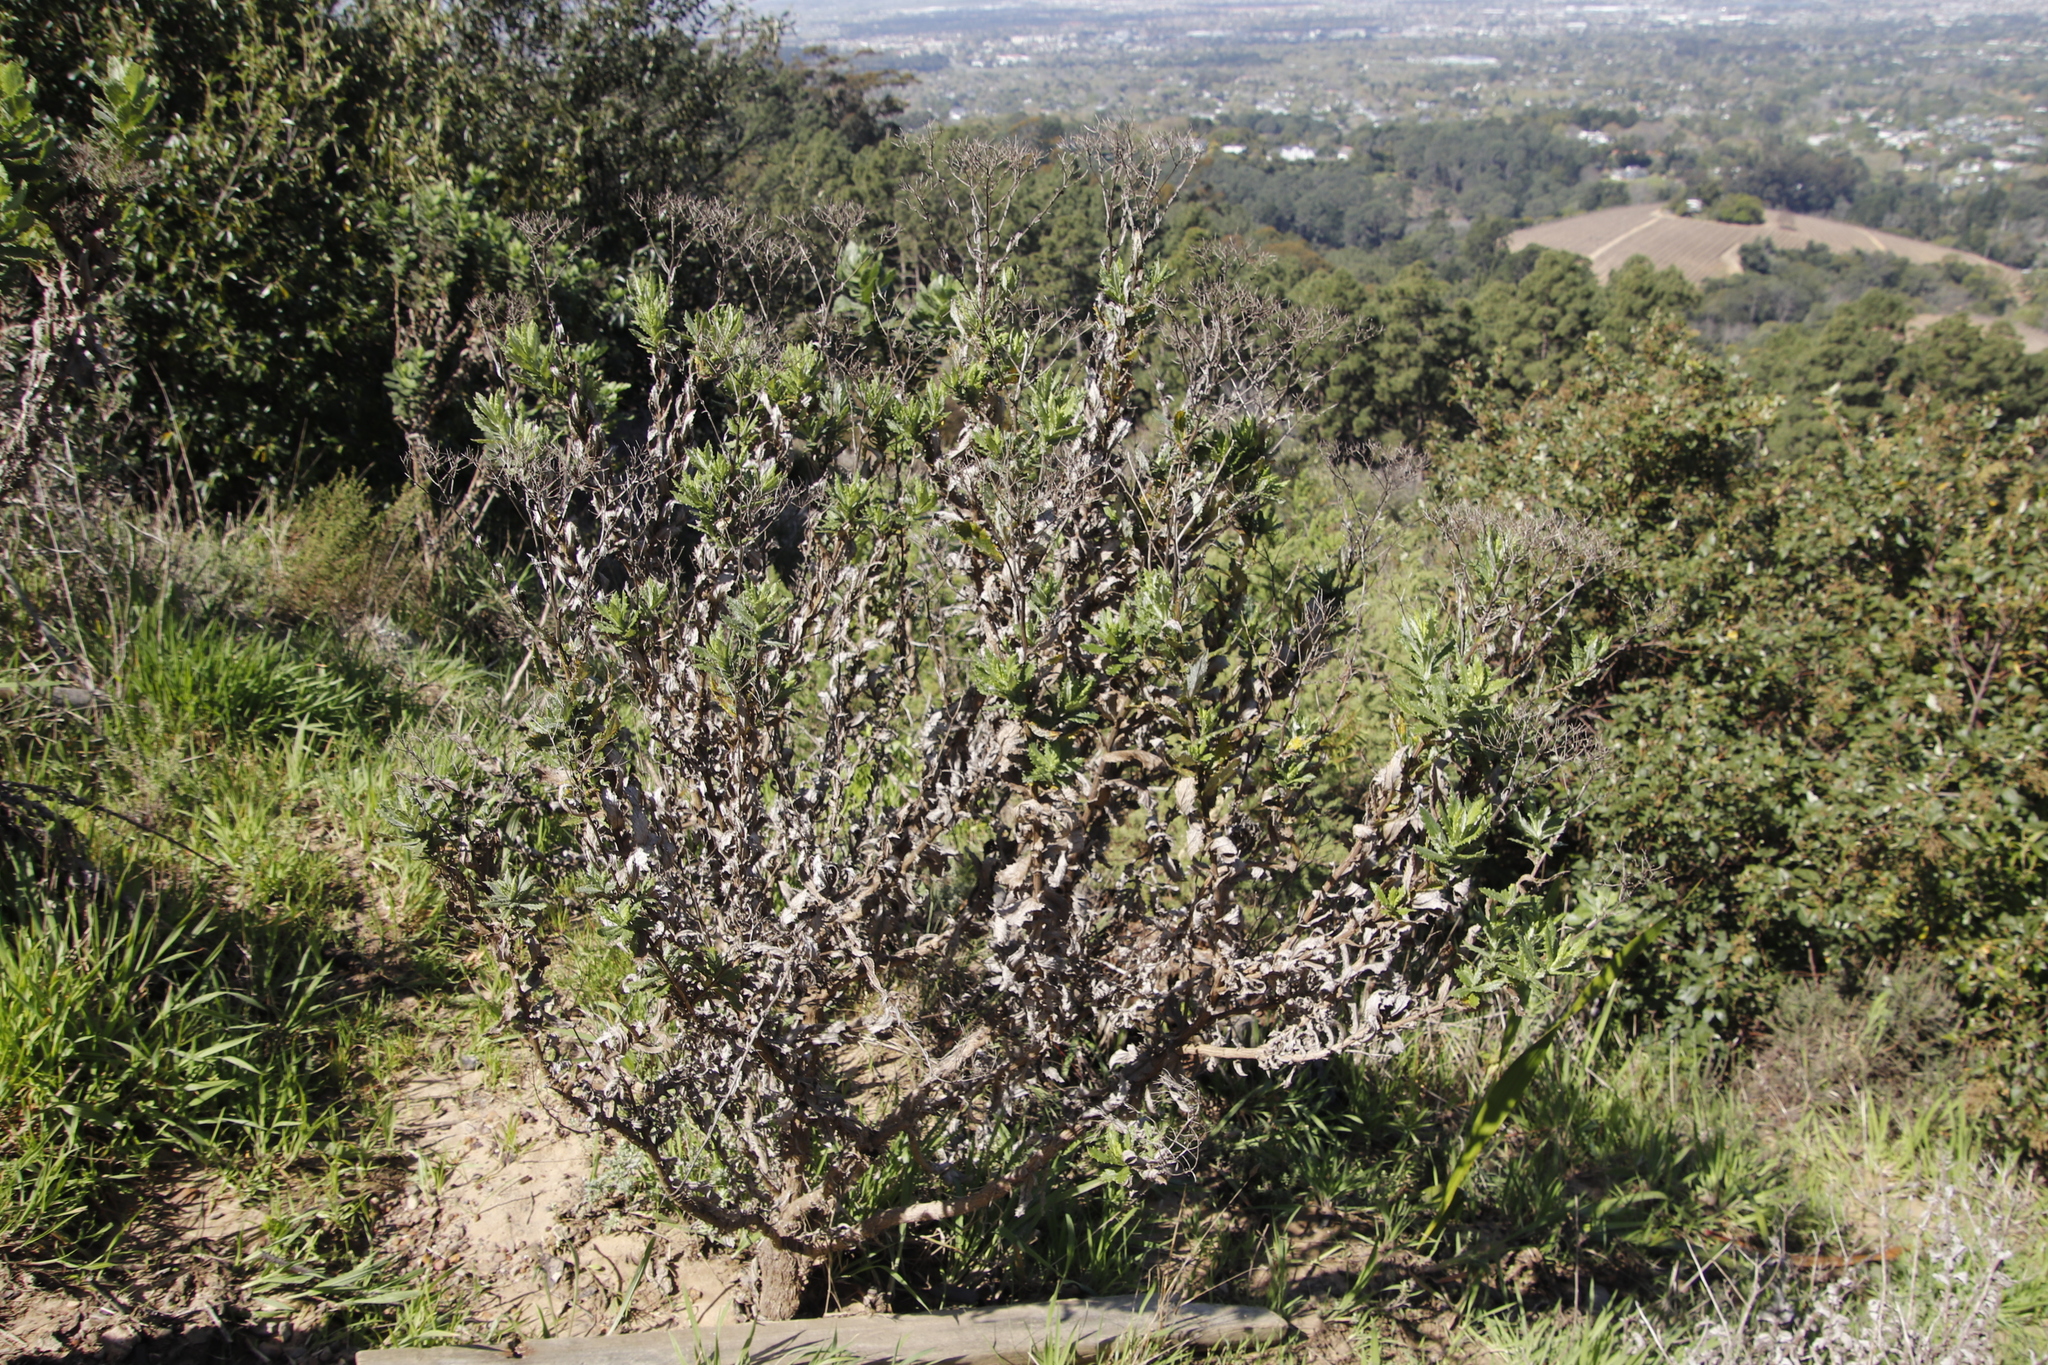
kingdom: Plantae
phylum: Tracheophyta
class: Magnoliopsida
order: Asterales
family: Asteraceae
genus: Senecio
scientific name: Senecio rigidus
